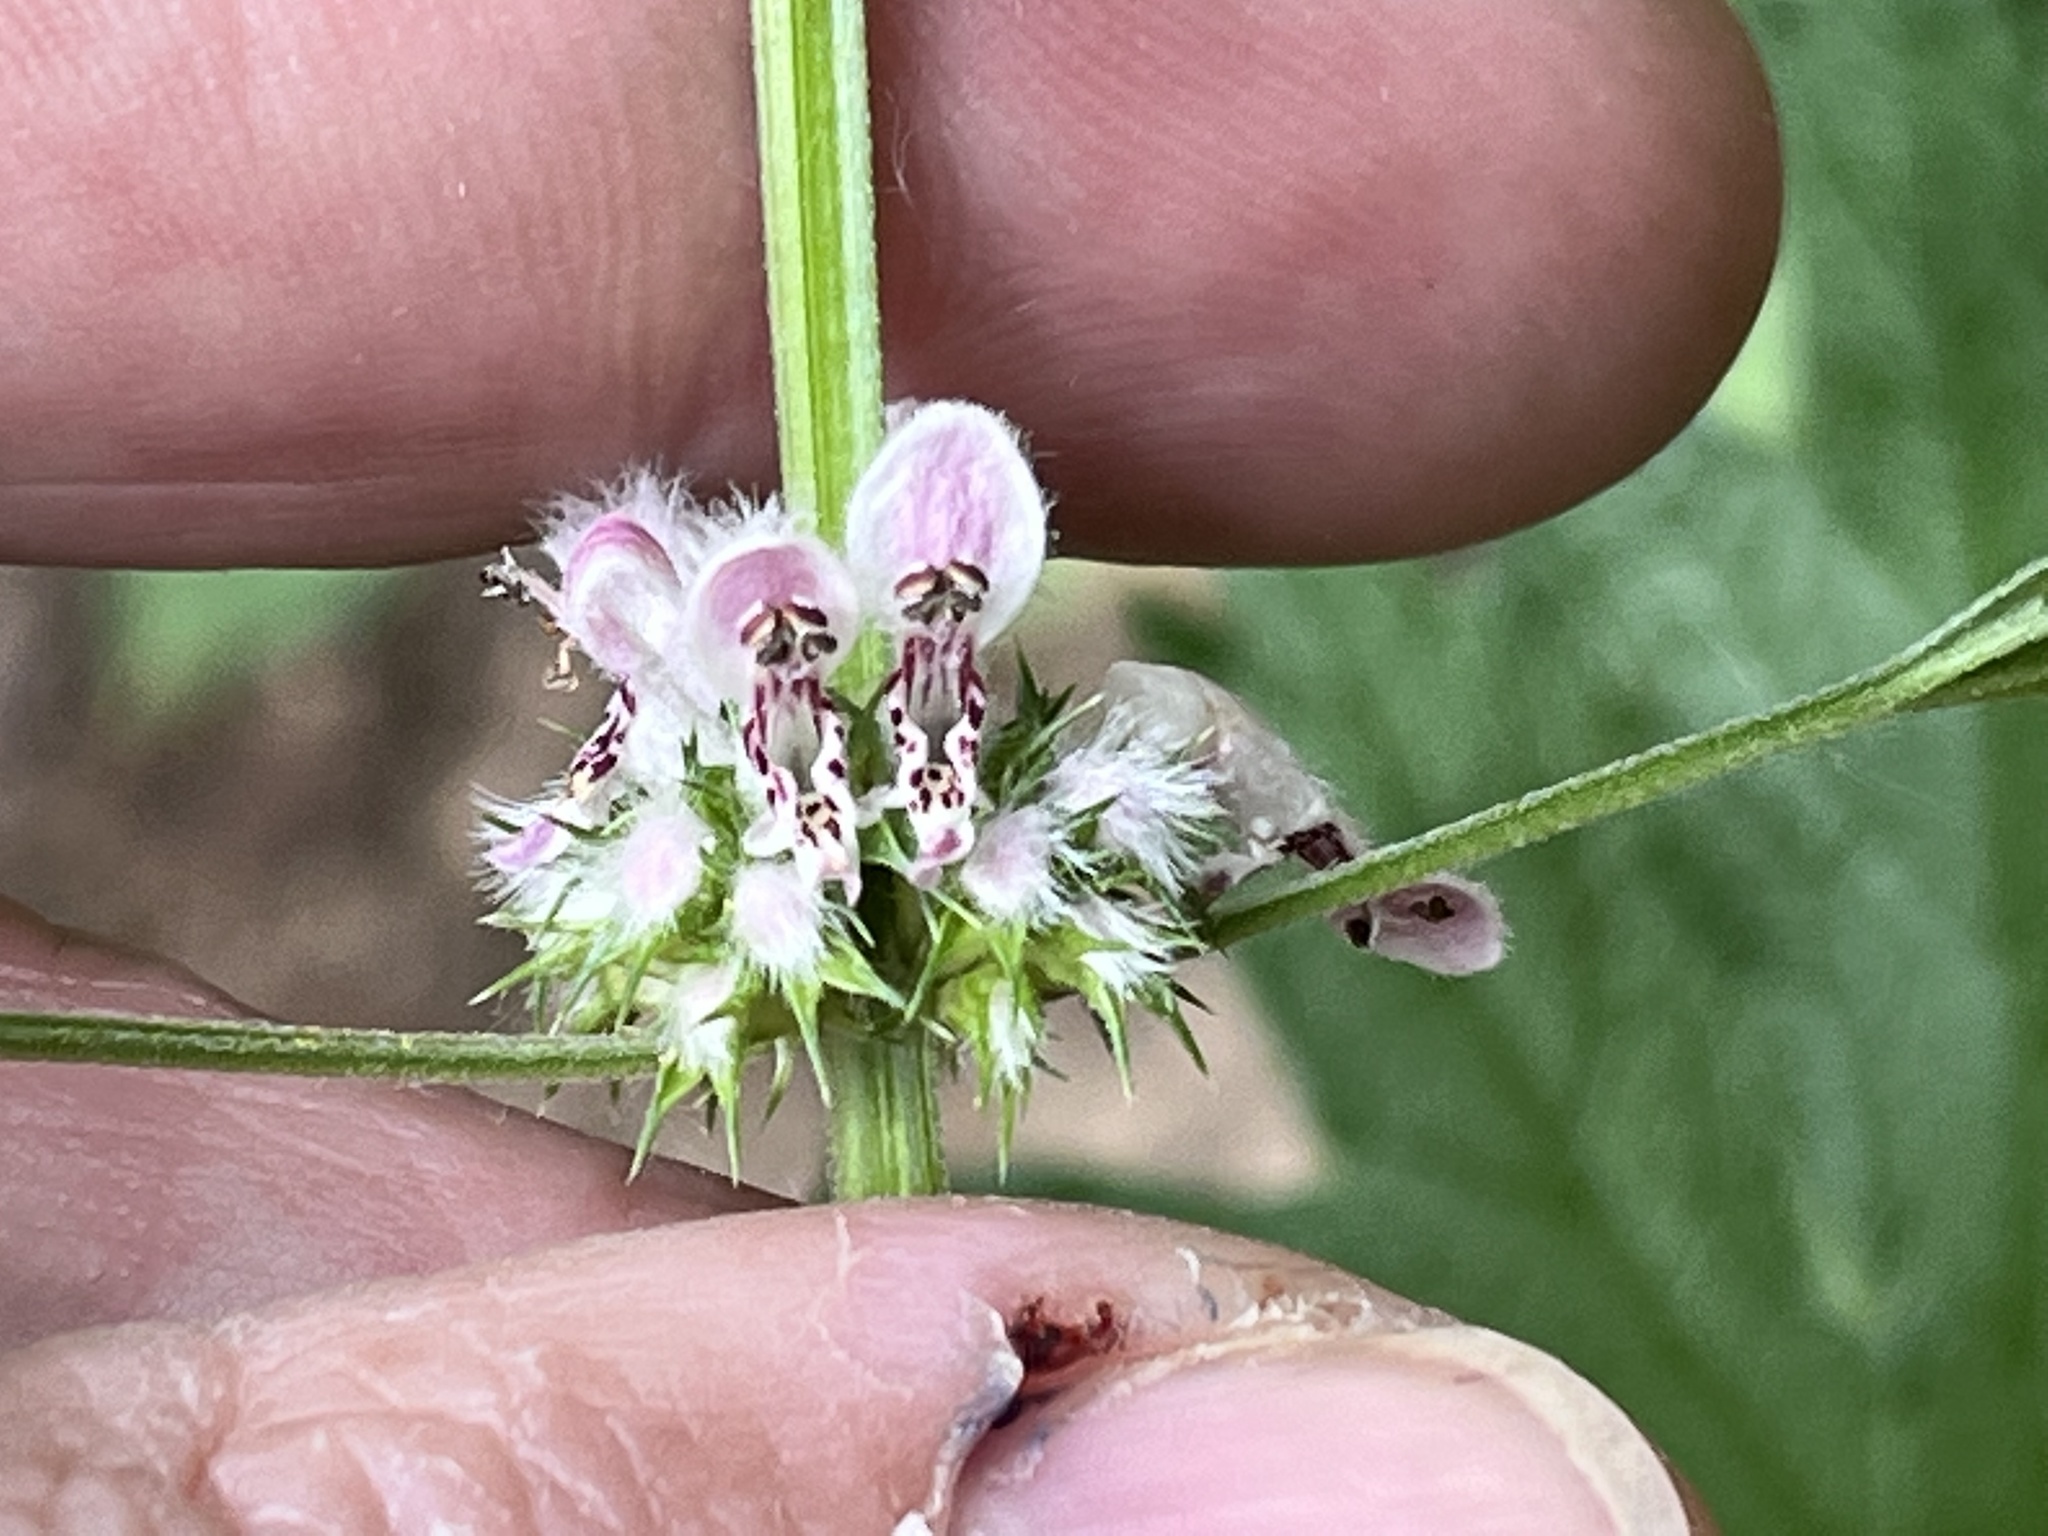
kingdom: Plantae
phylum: Tracheophyta
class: Magnoliopsida
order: Lamiales
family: Lamiaceae
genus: Leonurus
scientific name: Leonurus cardiaca
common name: Motherwort
